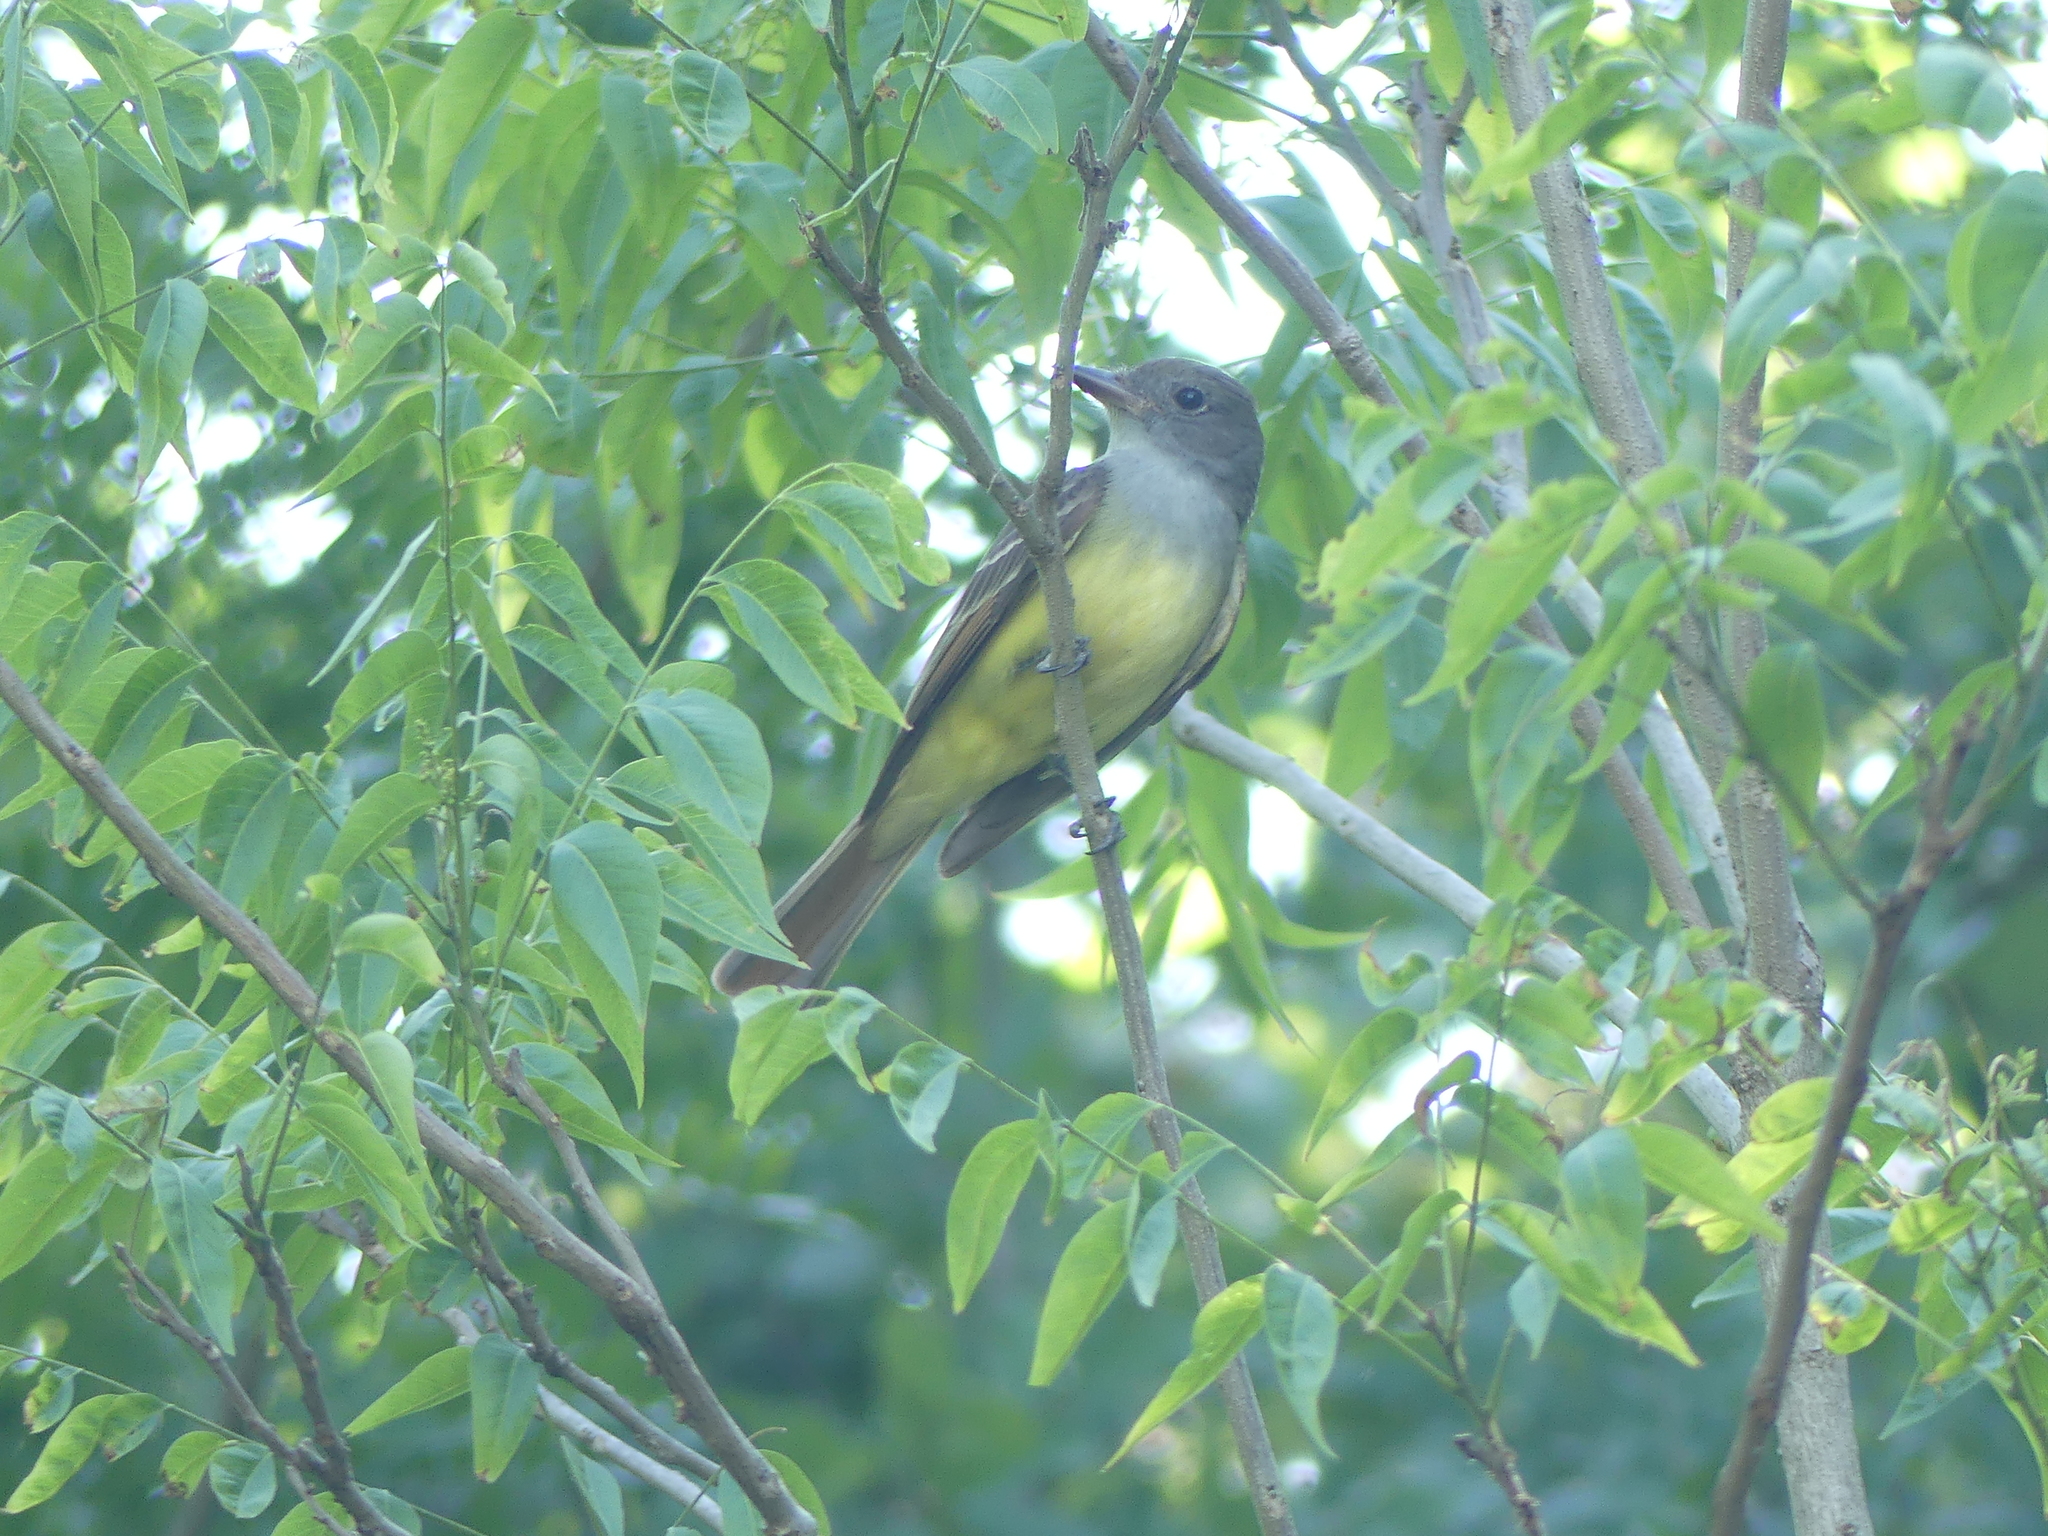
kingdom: Animalia
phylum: Chordata
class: Aves
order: Passeriformes
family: Tyrannidae
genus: Myiarchus
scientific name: Myiarchus crinitus
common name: Great crested flycatcher
